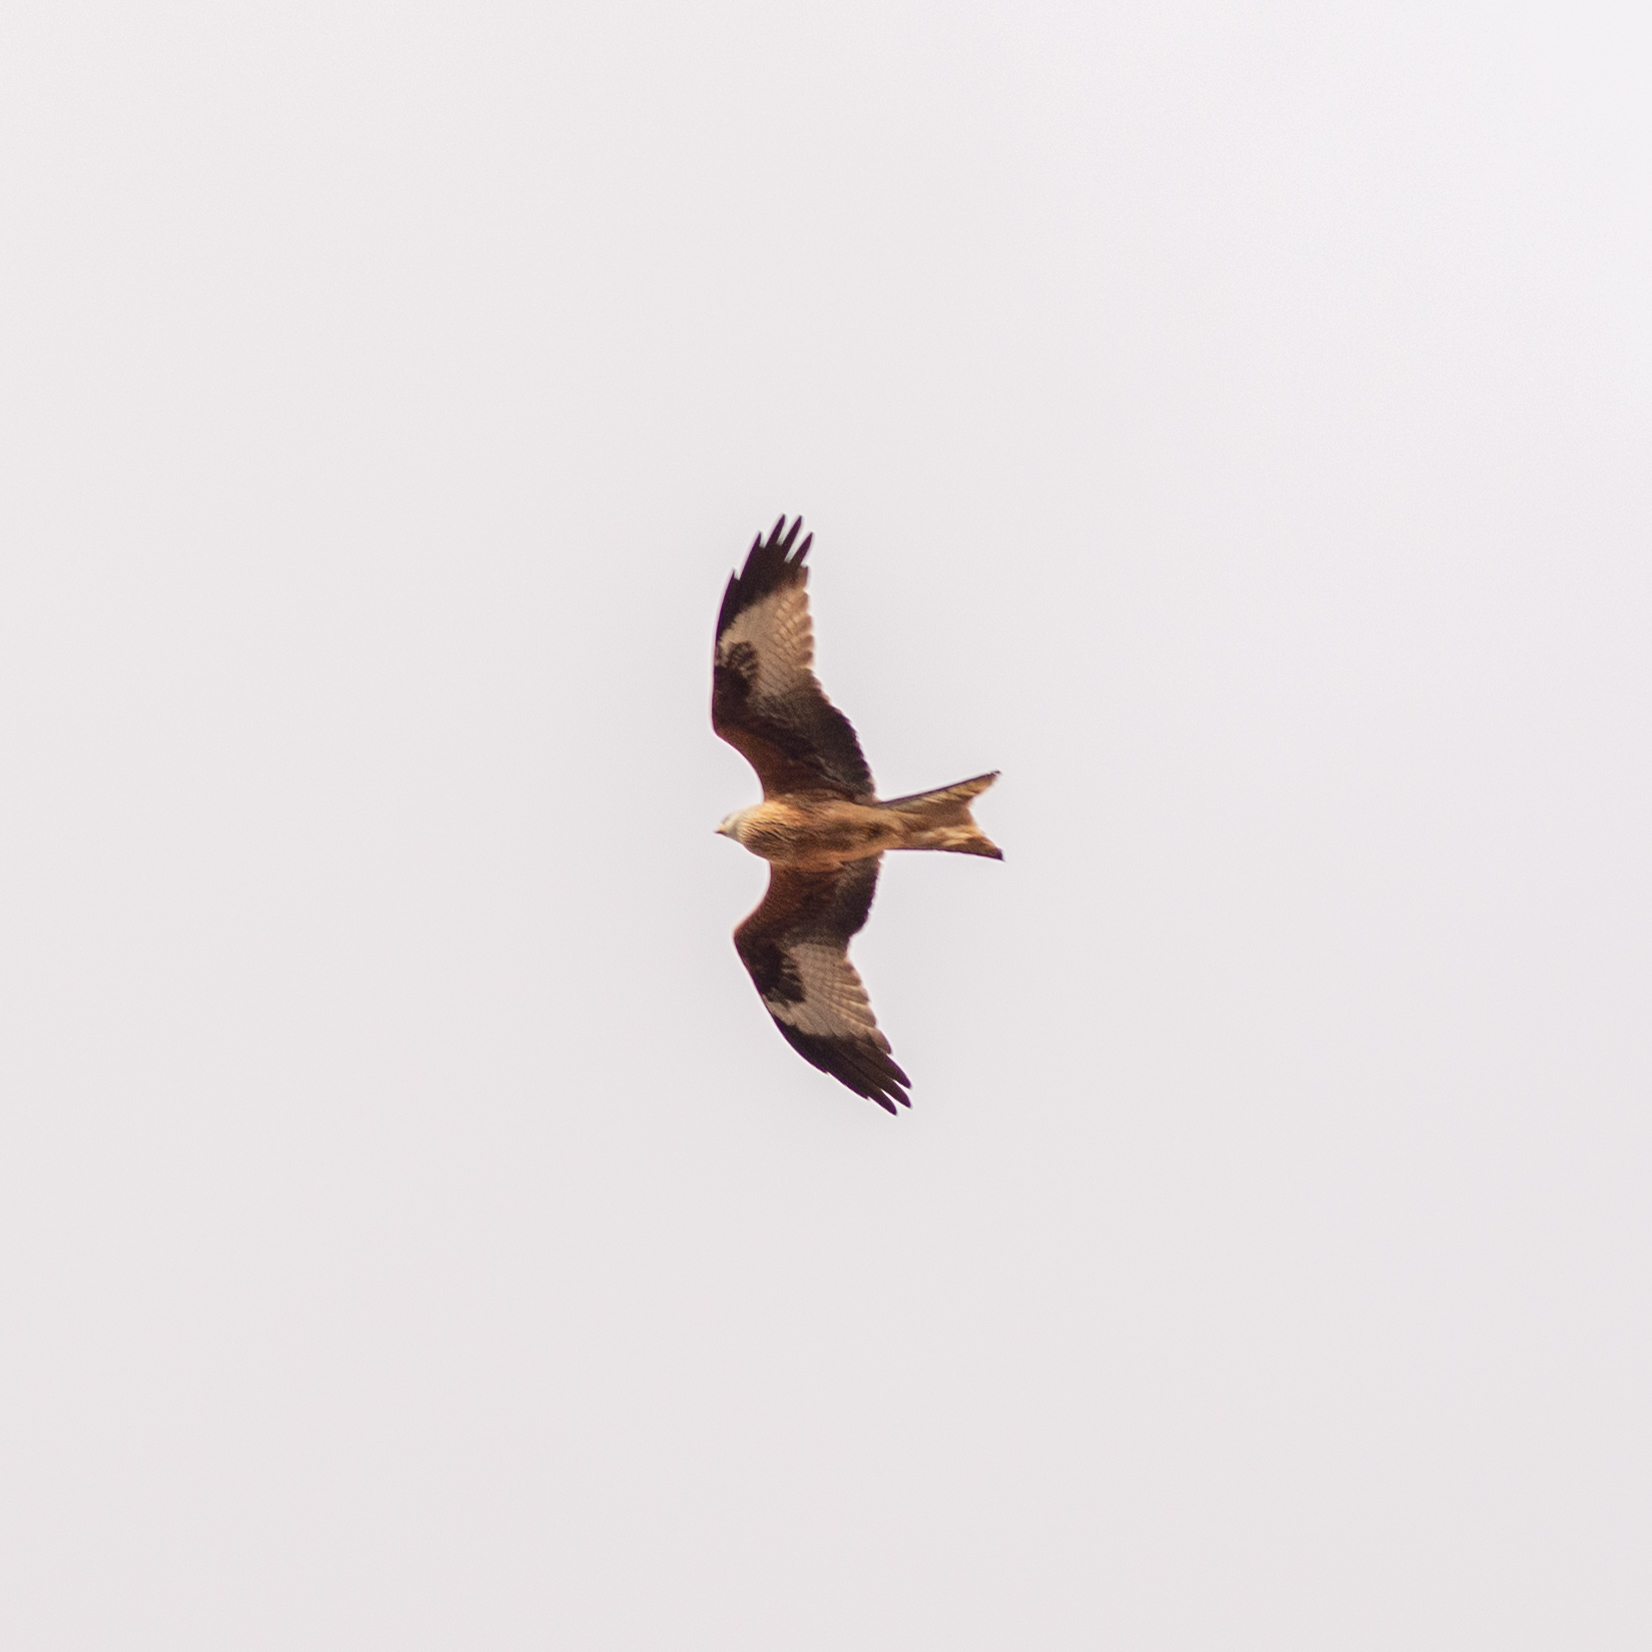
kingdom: Animalia
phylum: Chordata
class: Aves
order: Accipitriformes
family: Accipitridae
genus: Milvus
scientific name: Milvus milvus
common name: Red kite
